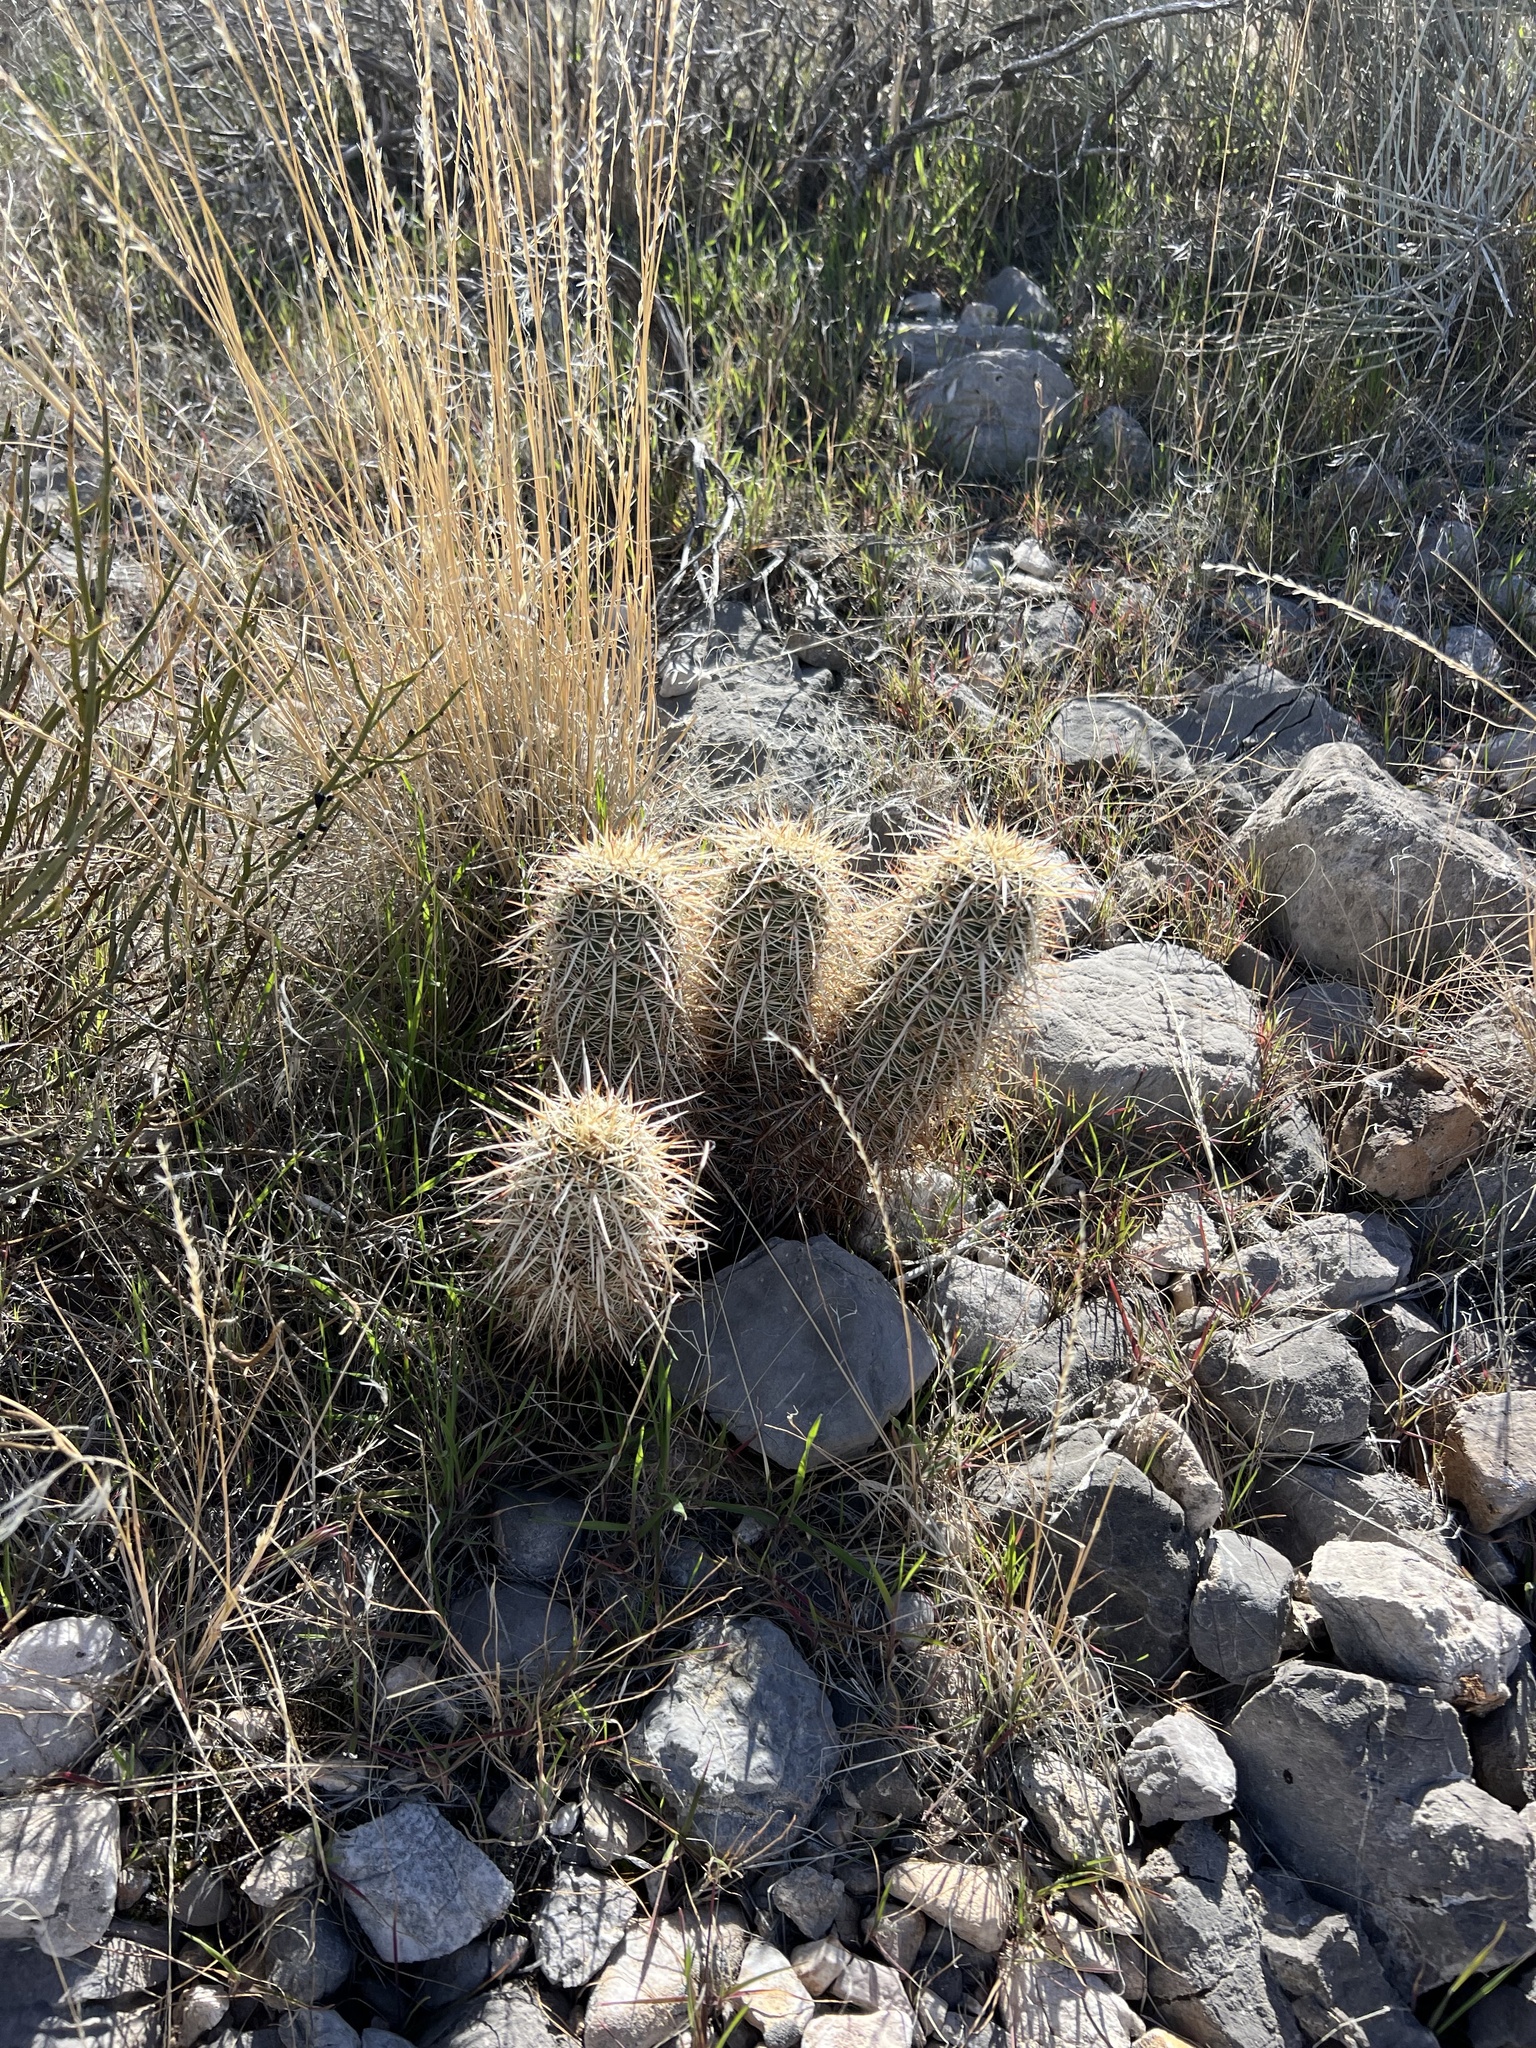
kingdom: Plantae
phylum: Tracheophyta
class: Magnoliopsida
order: Caryophyllales
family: Cactaceae
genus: Echinocereus
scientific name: Echinocereus engelmannii
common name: Engelmann's hedgehog cactus
